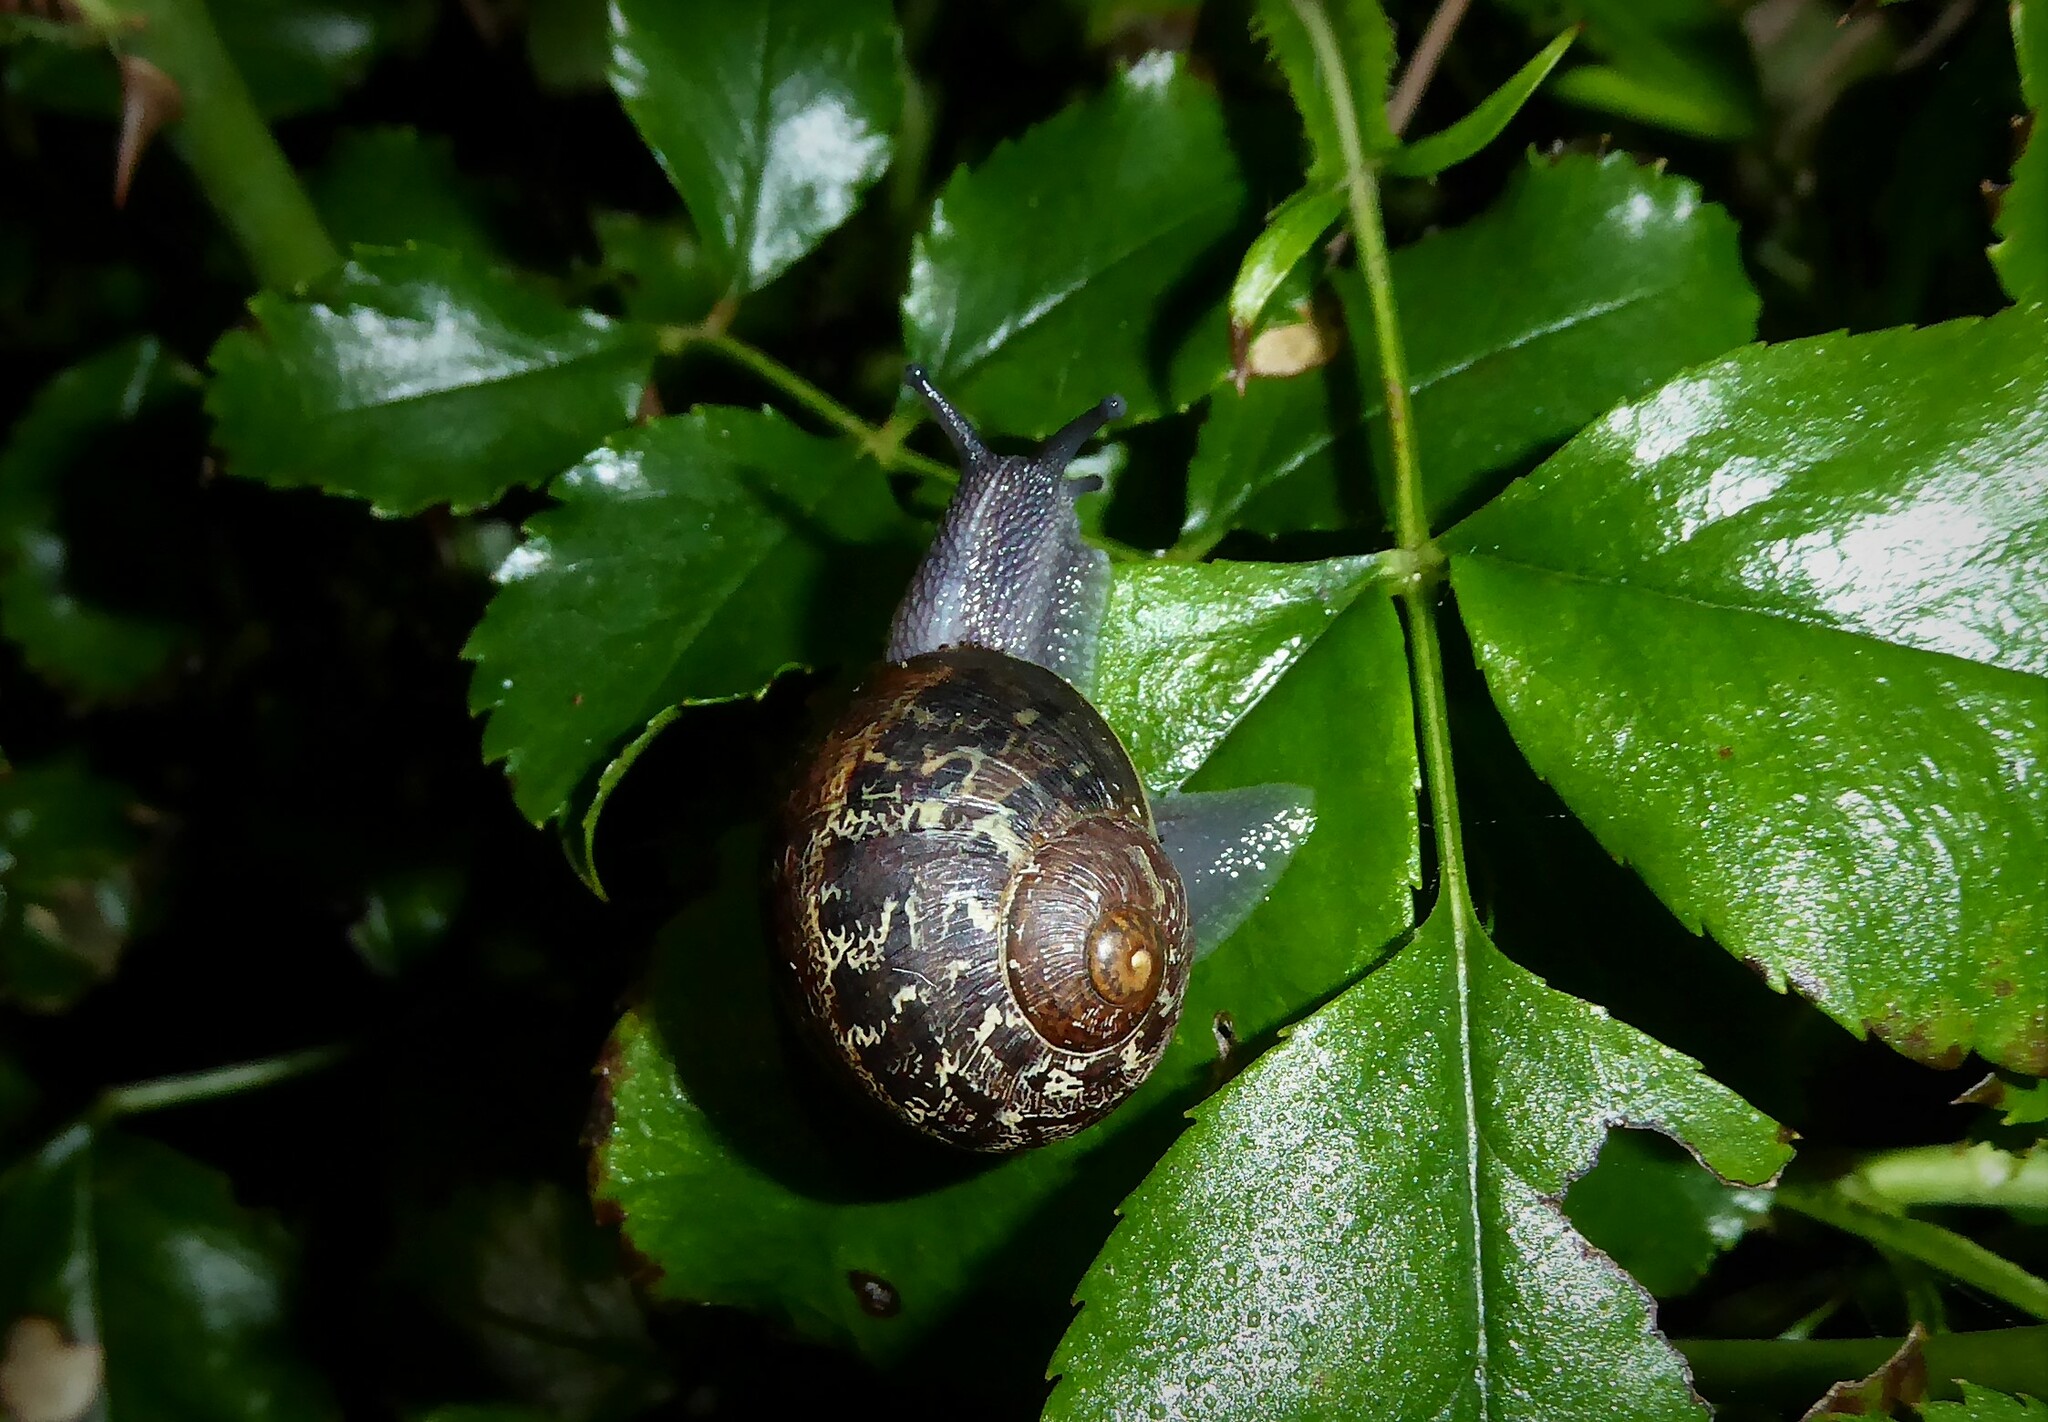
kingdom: Animalia
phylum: Mollusca
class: Gastropoda
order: Stylommatophora
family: Helicidae
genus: Cornu
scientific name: Cornu aspersum
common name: Brown garden snail
